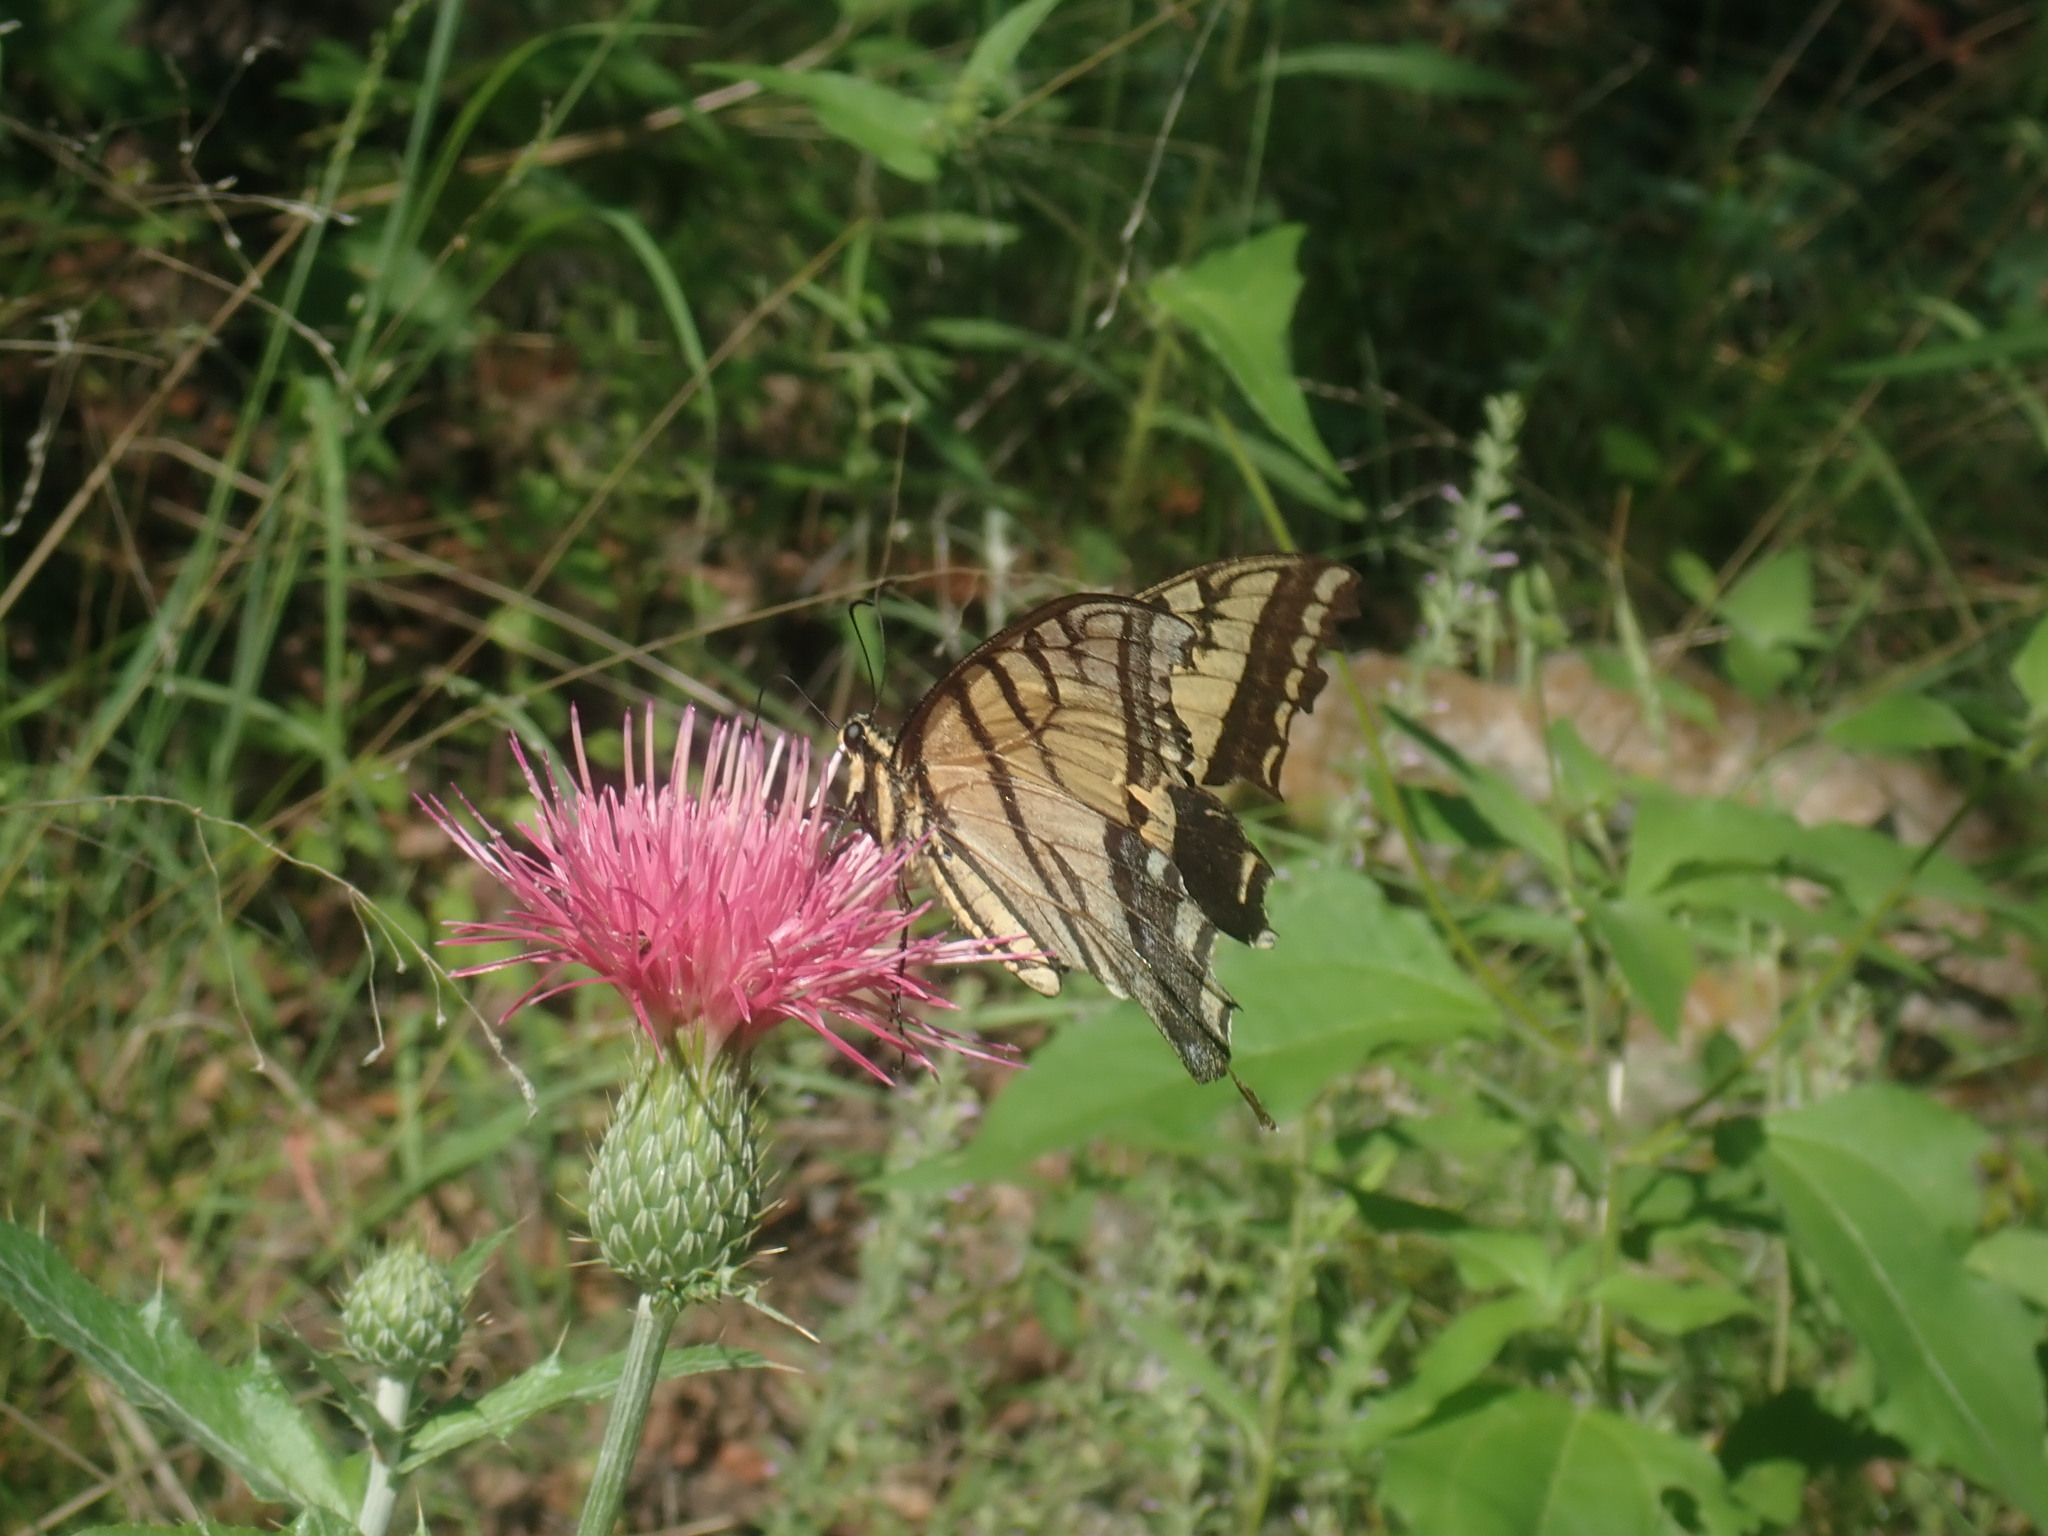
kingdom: Animalia
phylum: Arthropoda
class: Insecta
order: Lepidoptera
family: Papilionidae
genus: Papilio
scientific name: Papilio multicaudata
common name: Two-tailed tiger swallowtail
